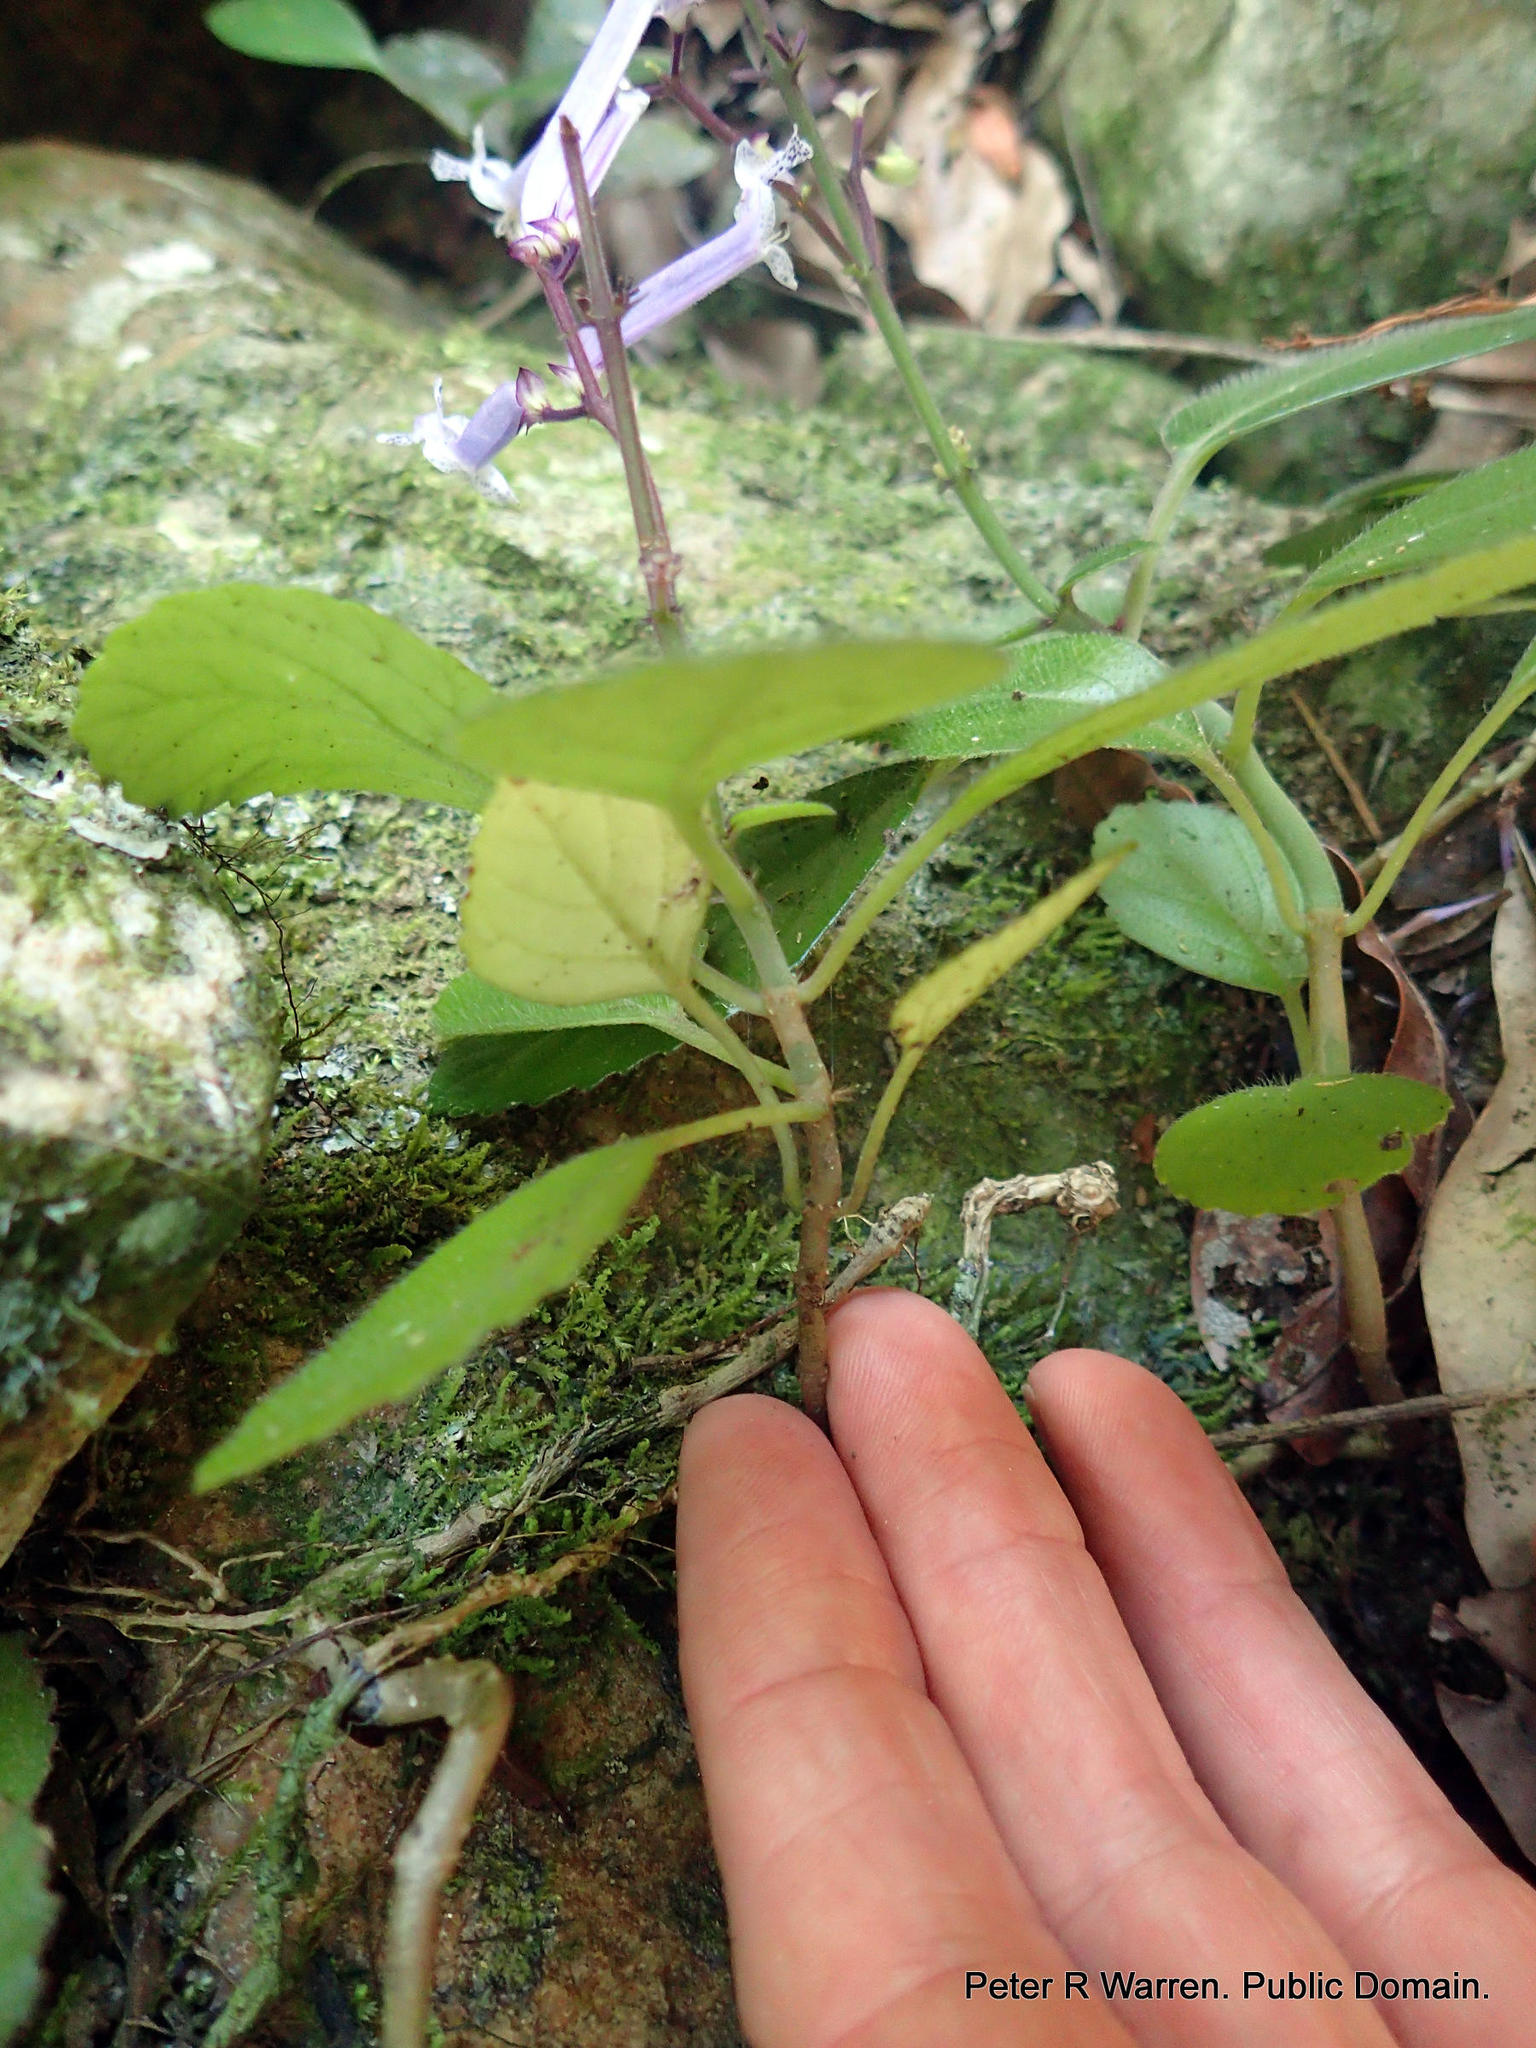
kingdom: Plantae
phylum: Tracheophyta
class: Magnoliopsida
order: Lamiales
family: Lamiaceae
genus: Plectranthus
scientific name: Plectranthus hilliardiae
